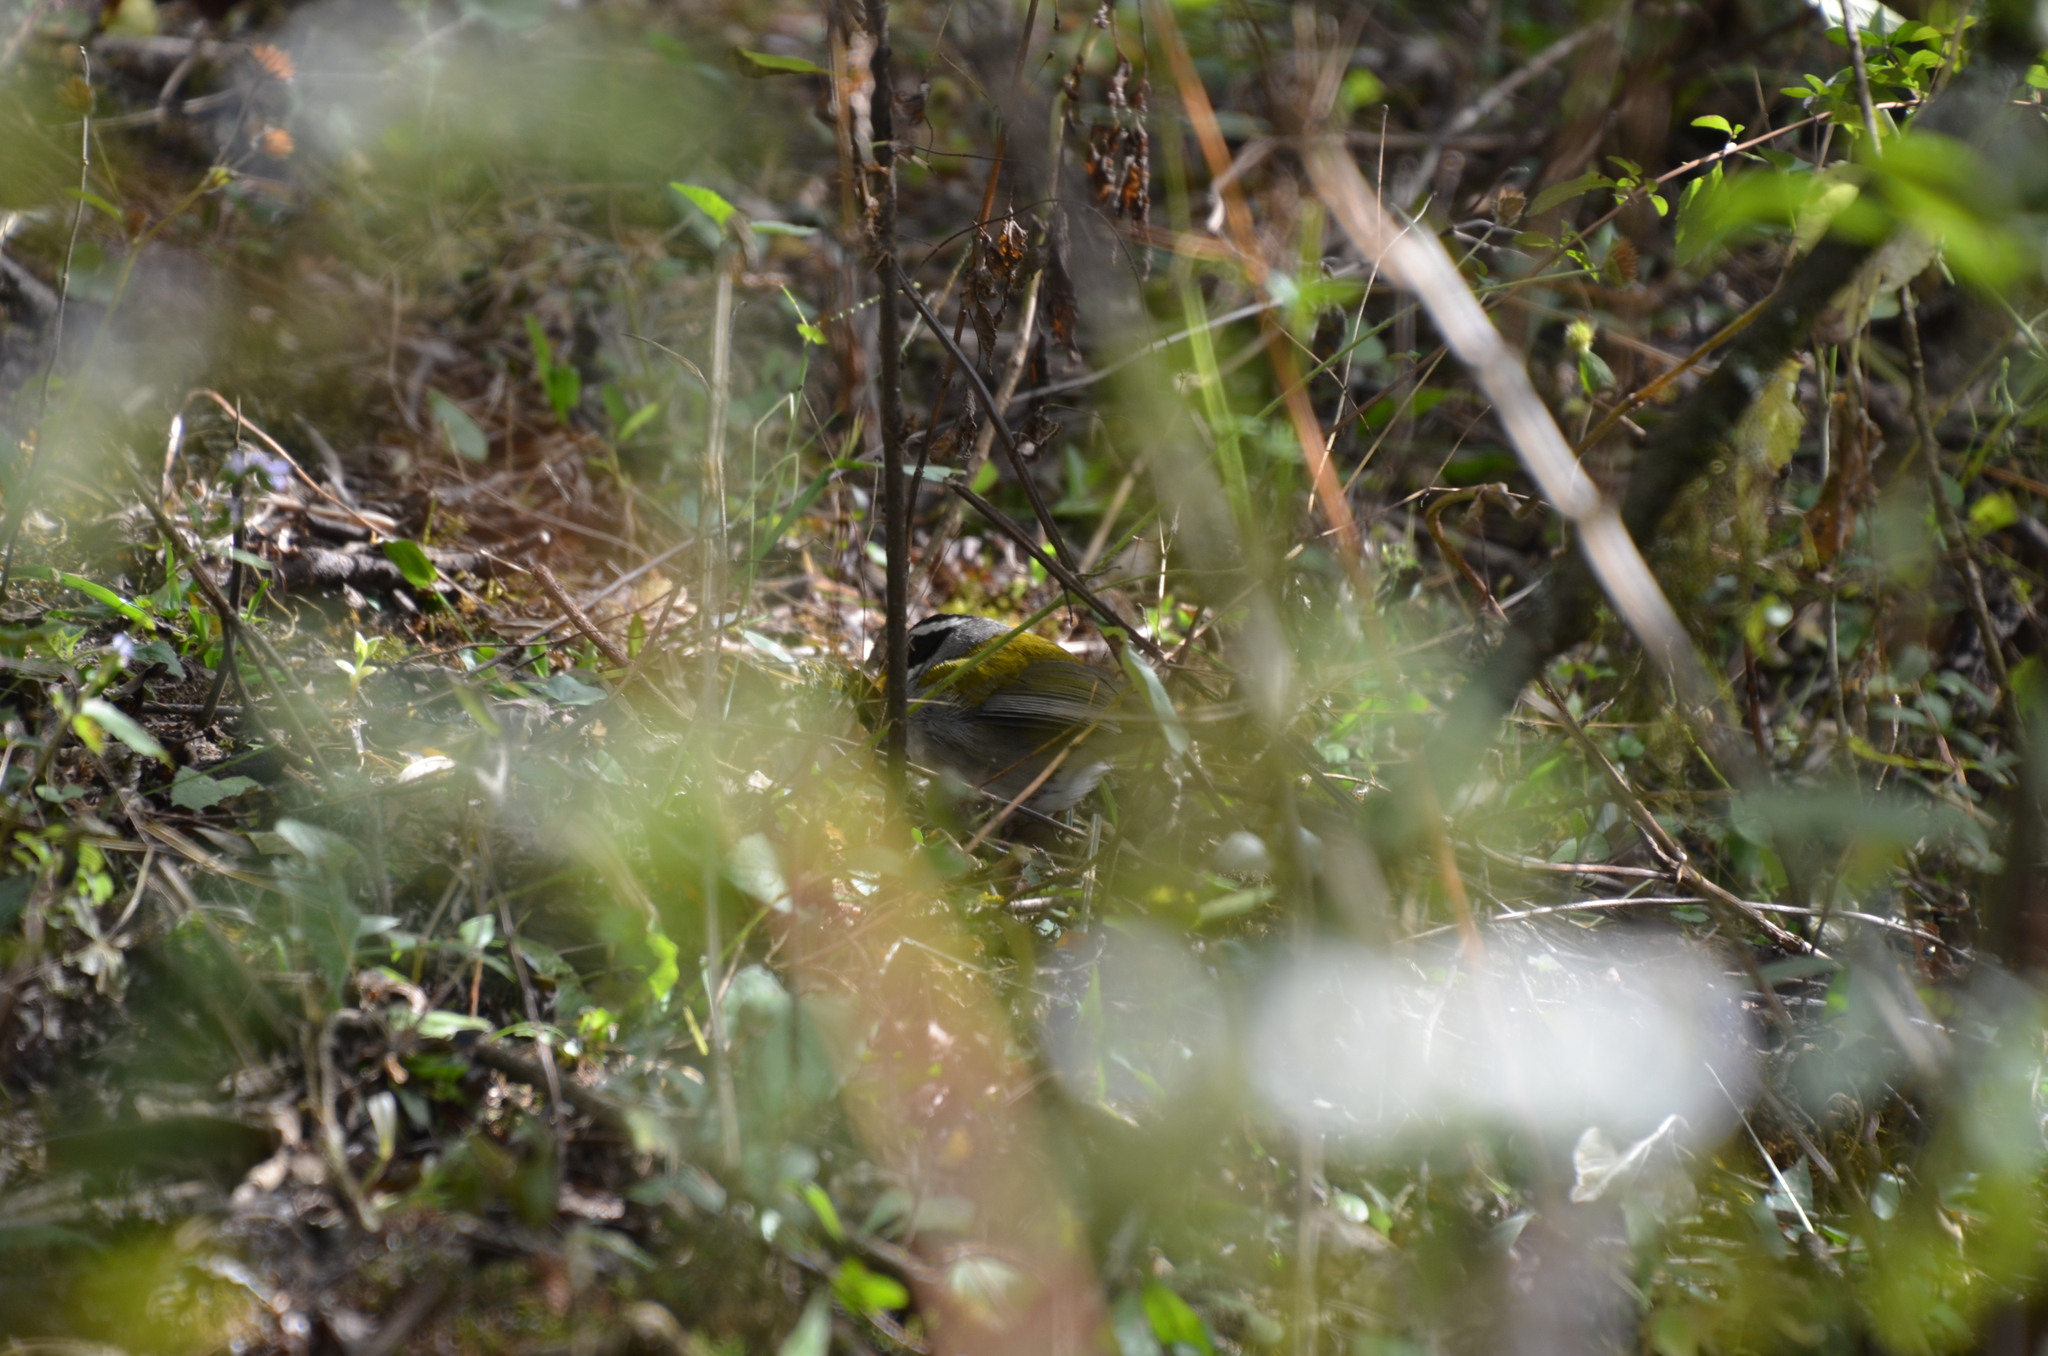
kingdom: Animalia
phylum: Chordata
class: Aves
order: Passeriformes
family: Passerellidae
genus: Arremon
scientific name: Arremon dorbignii
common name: Moss-backed sparrow
